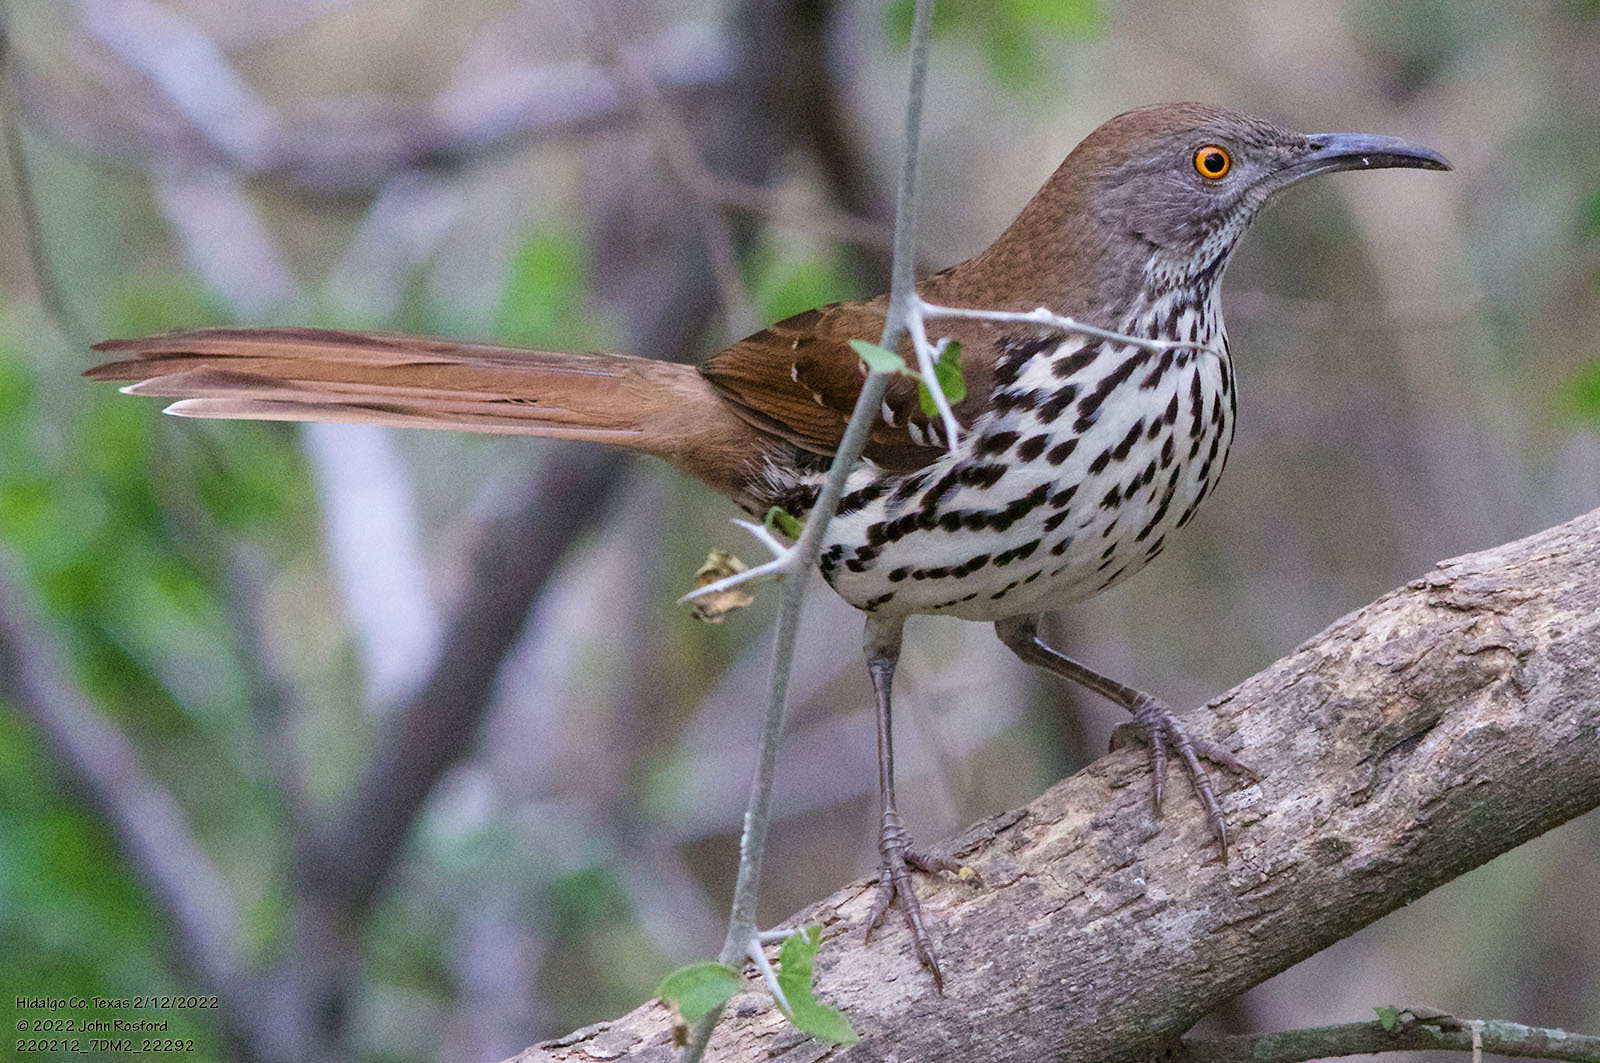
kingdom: Animalia
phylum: Chordata
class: Aves
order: Passeriformes
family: Mimidae
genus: Toxostoma
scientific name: Toxostoma longirostre
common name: Long-billed thrasher
